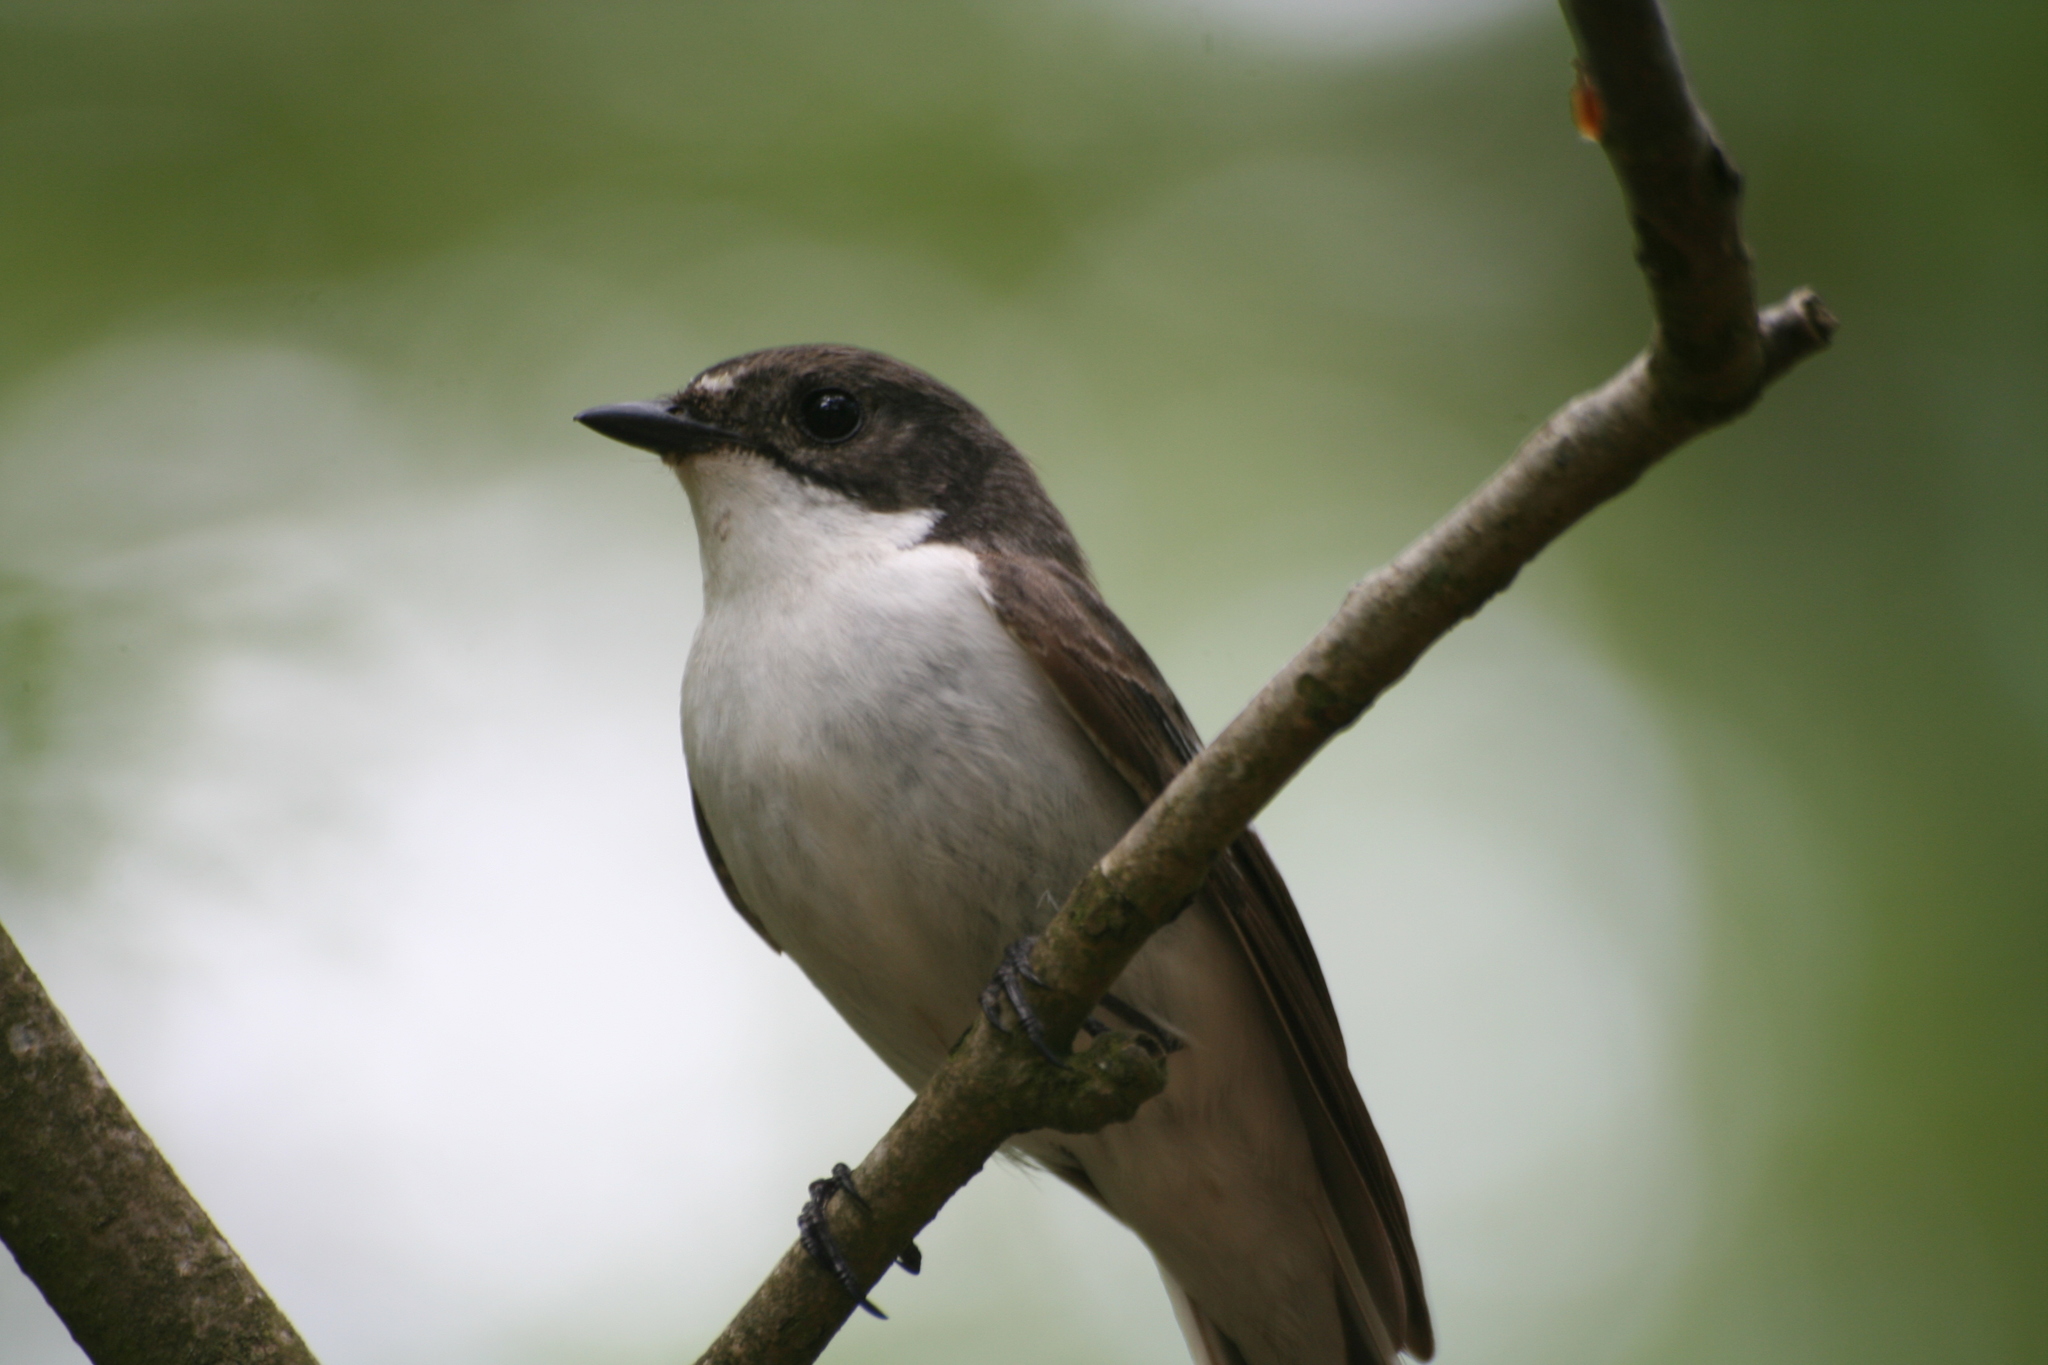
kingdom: Animalia
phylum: Chordata
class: Aves
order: Passeriformes
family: Muscicapidae
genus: Ficedula
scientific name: Ficedula hypoleuca
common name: European pied flycatcher
